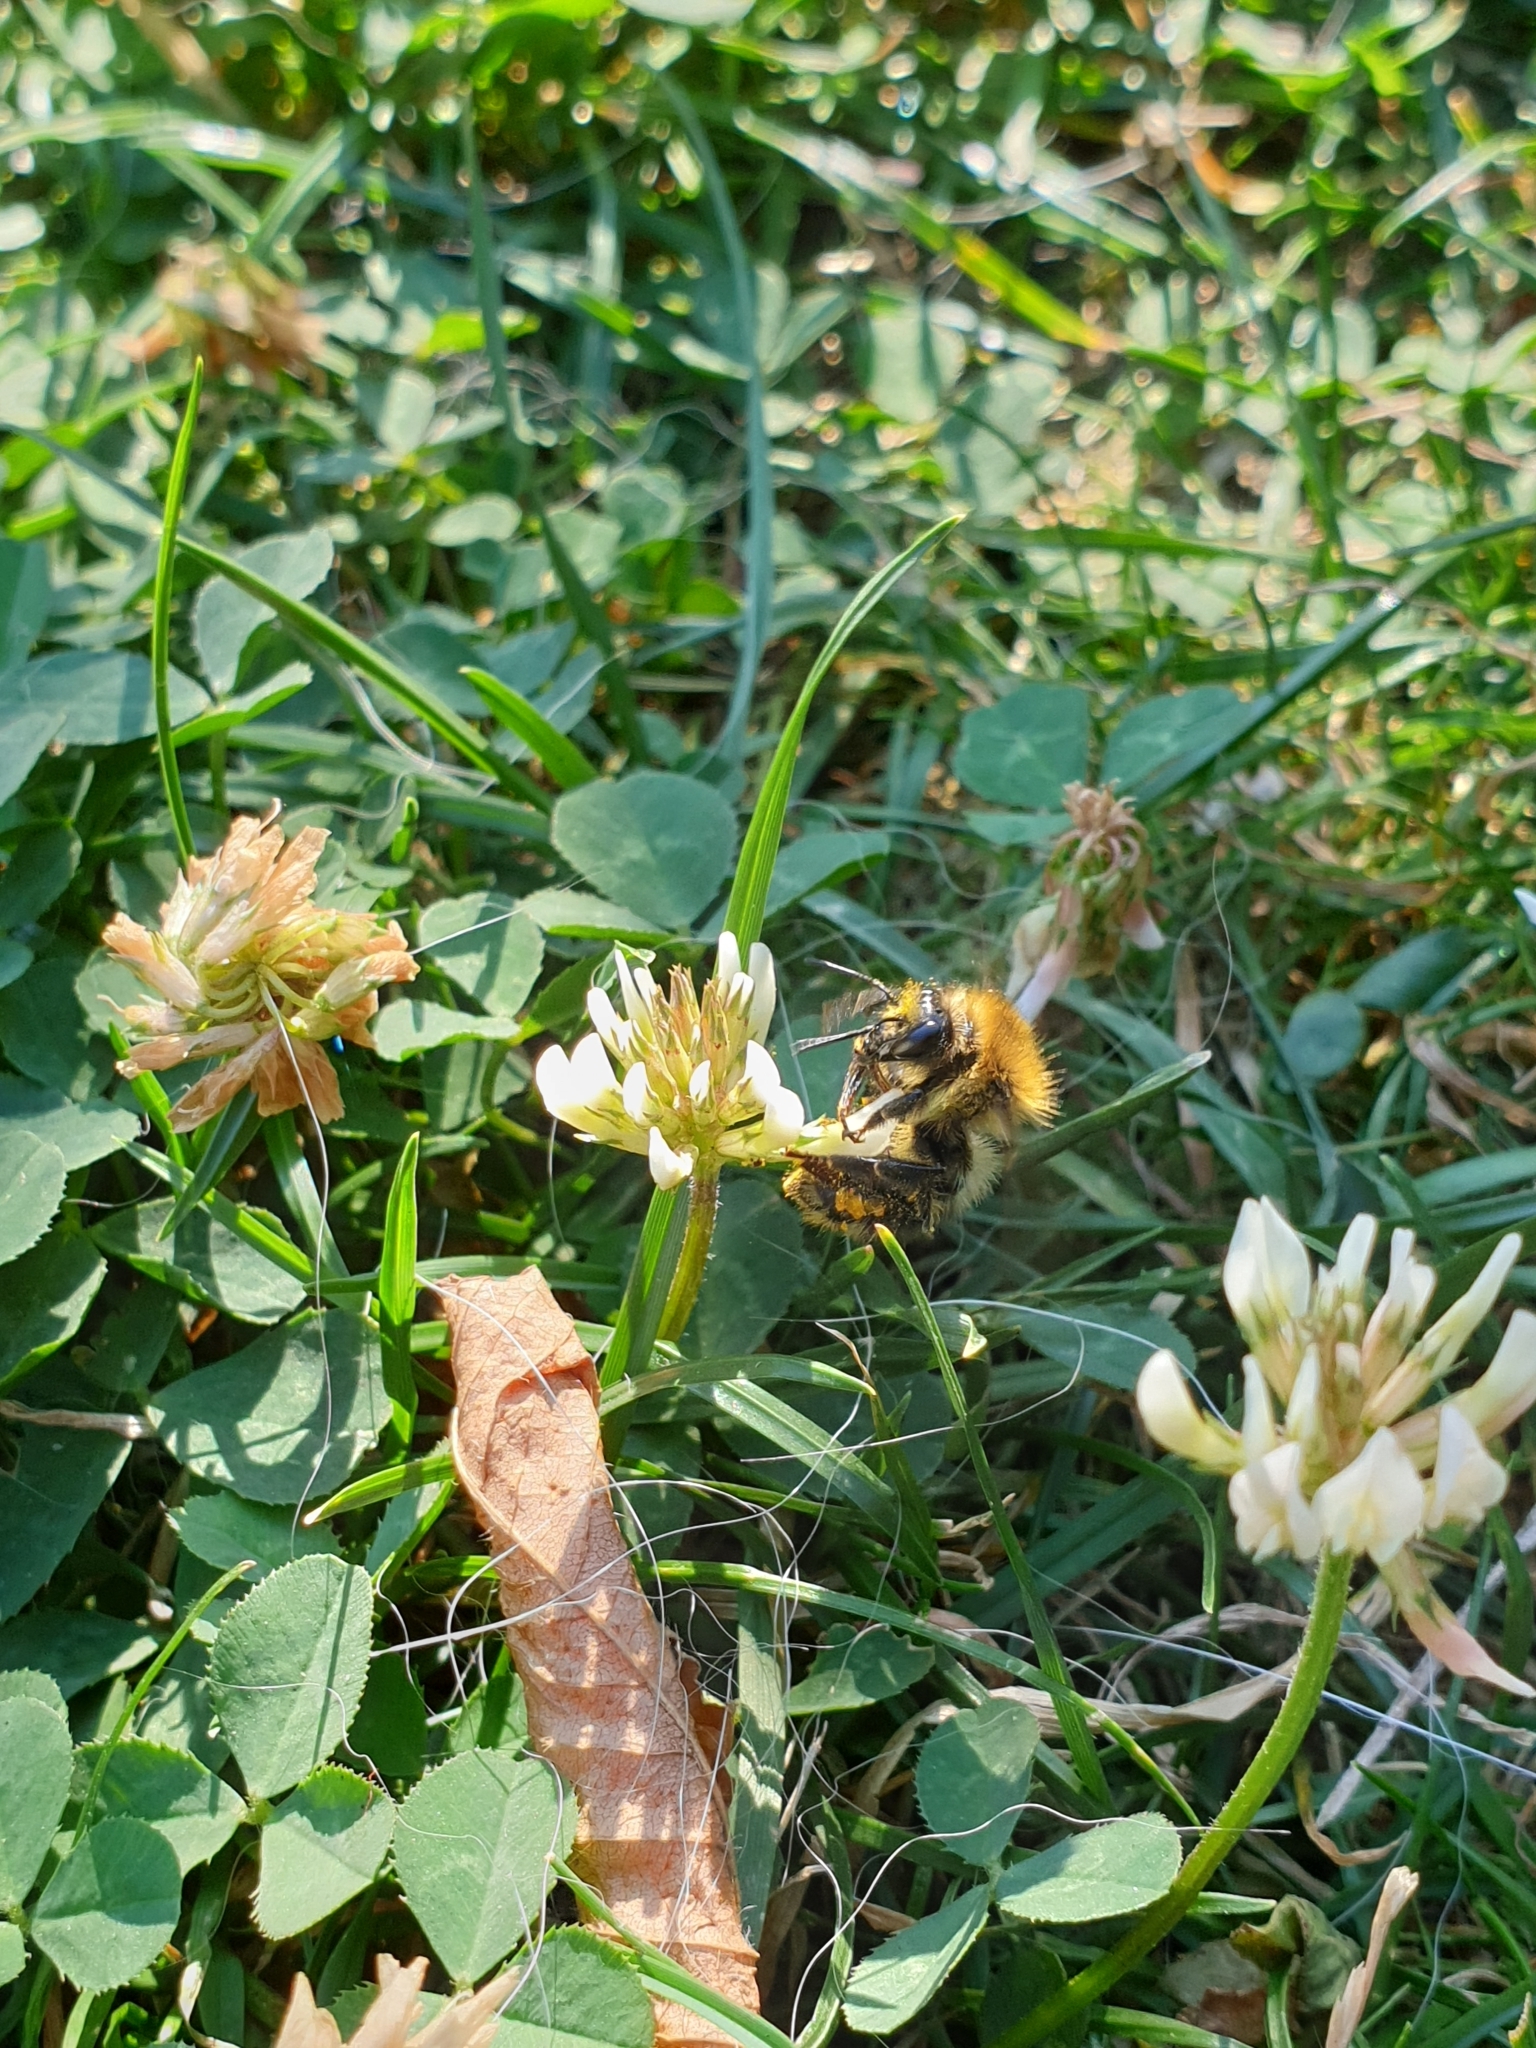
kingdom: Animalia
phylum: Arthropoda
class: Insecta
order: Hymenoptera
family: Apidae
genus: Bombus
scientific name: Bombus pascuorum
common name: Common carder bee
